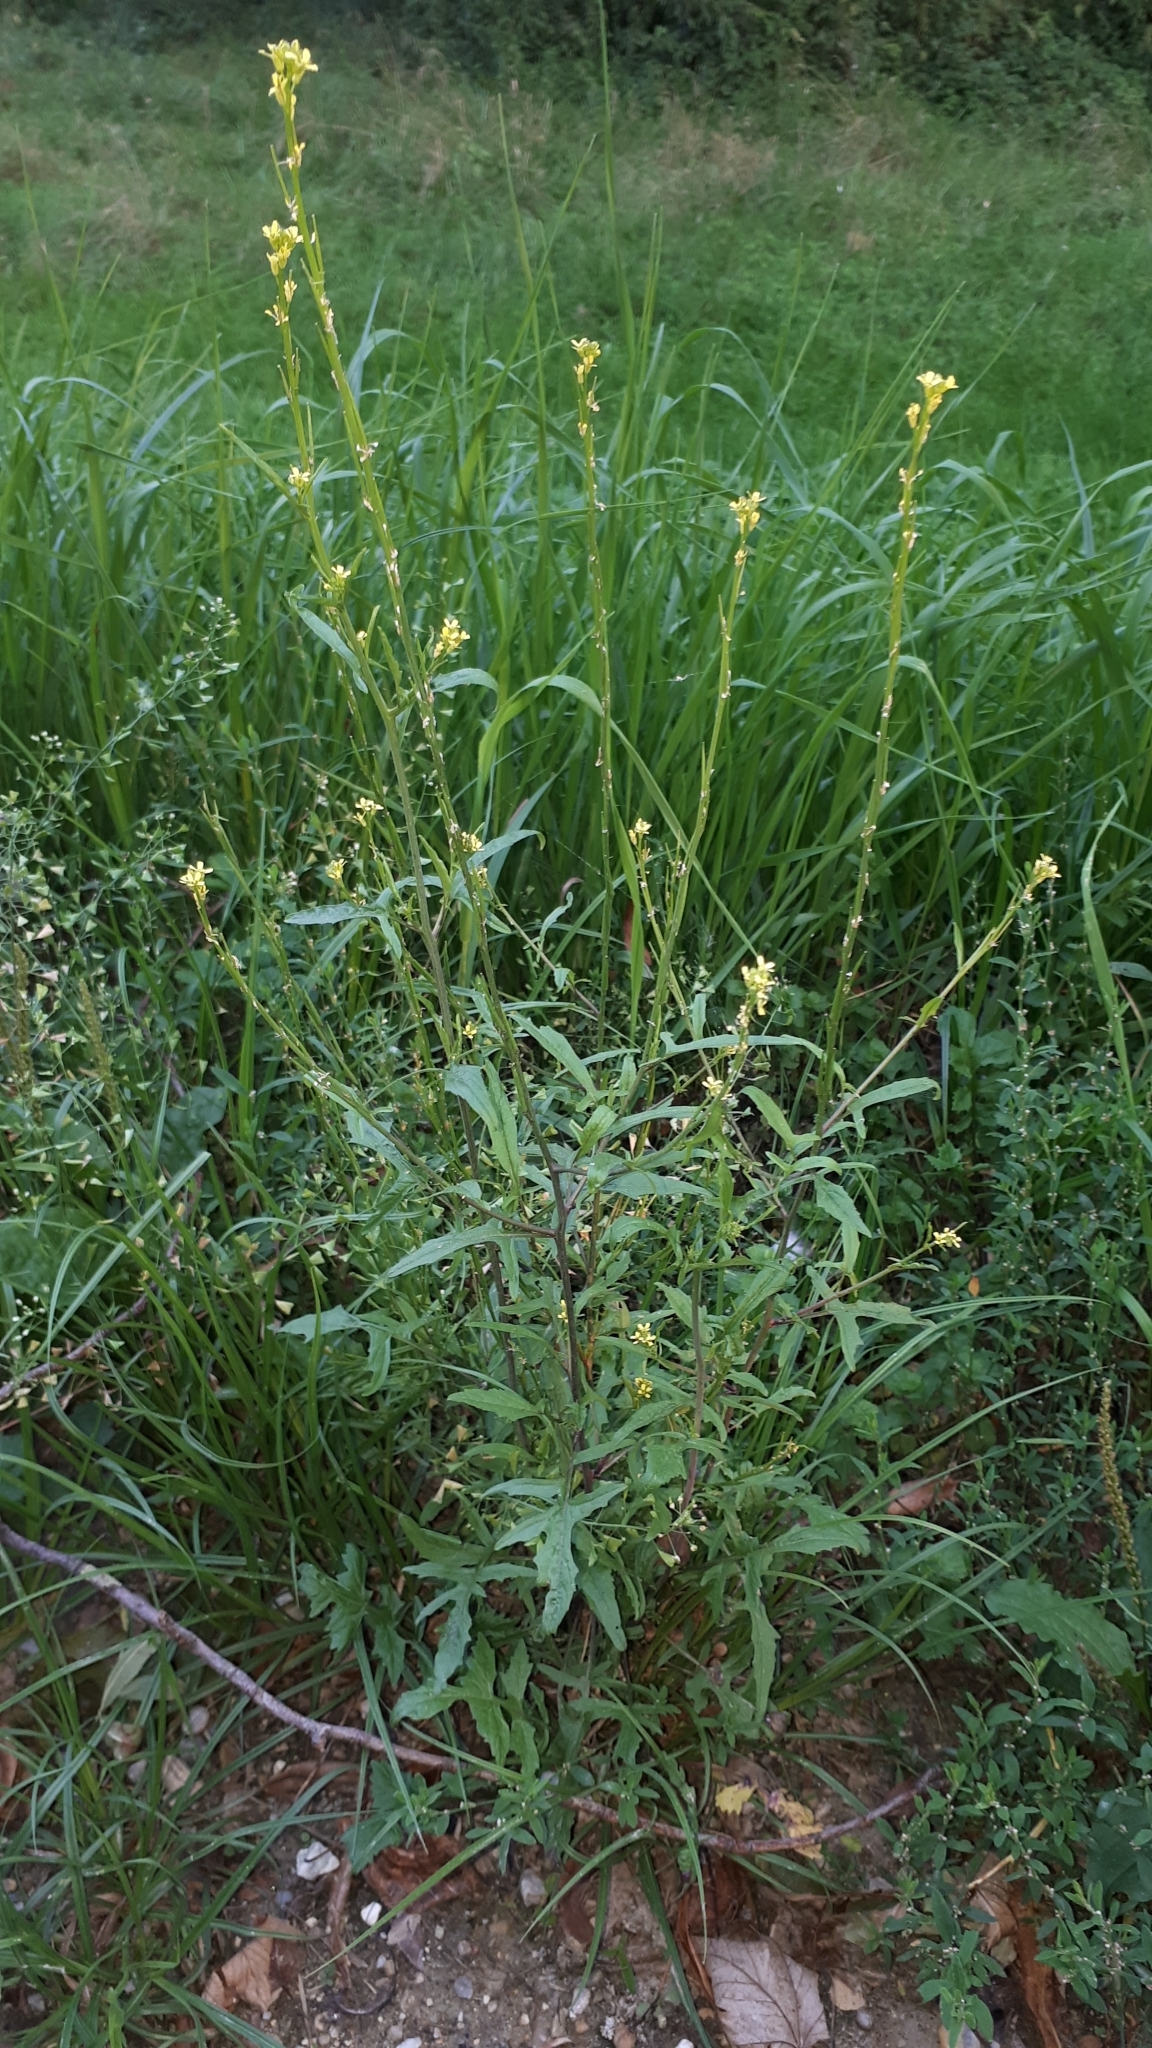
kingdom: Plantae
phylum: Tracheophyta
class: Magnoliopsida
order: Brassicales
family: Brassicaceae
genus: Sisymbrium
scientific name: Sisymbrium officinale
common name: Hedge mustard
